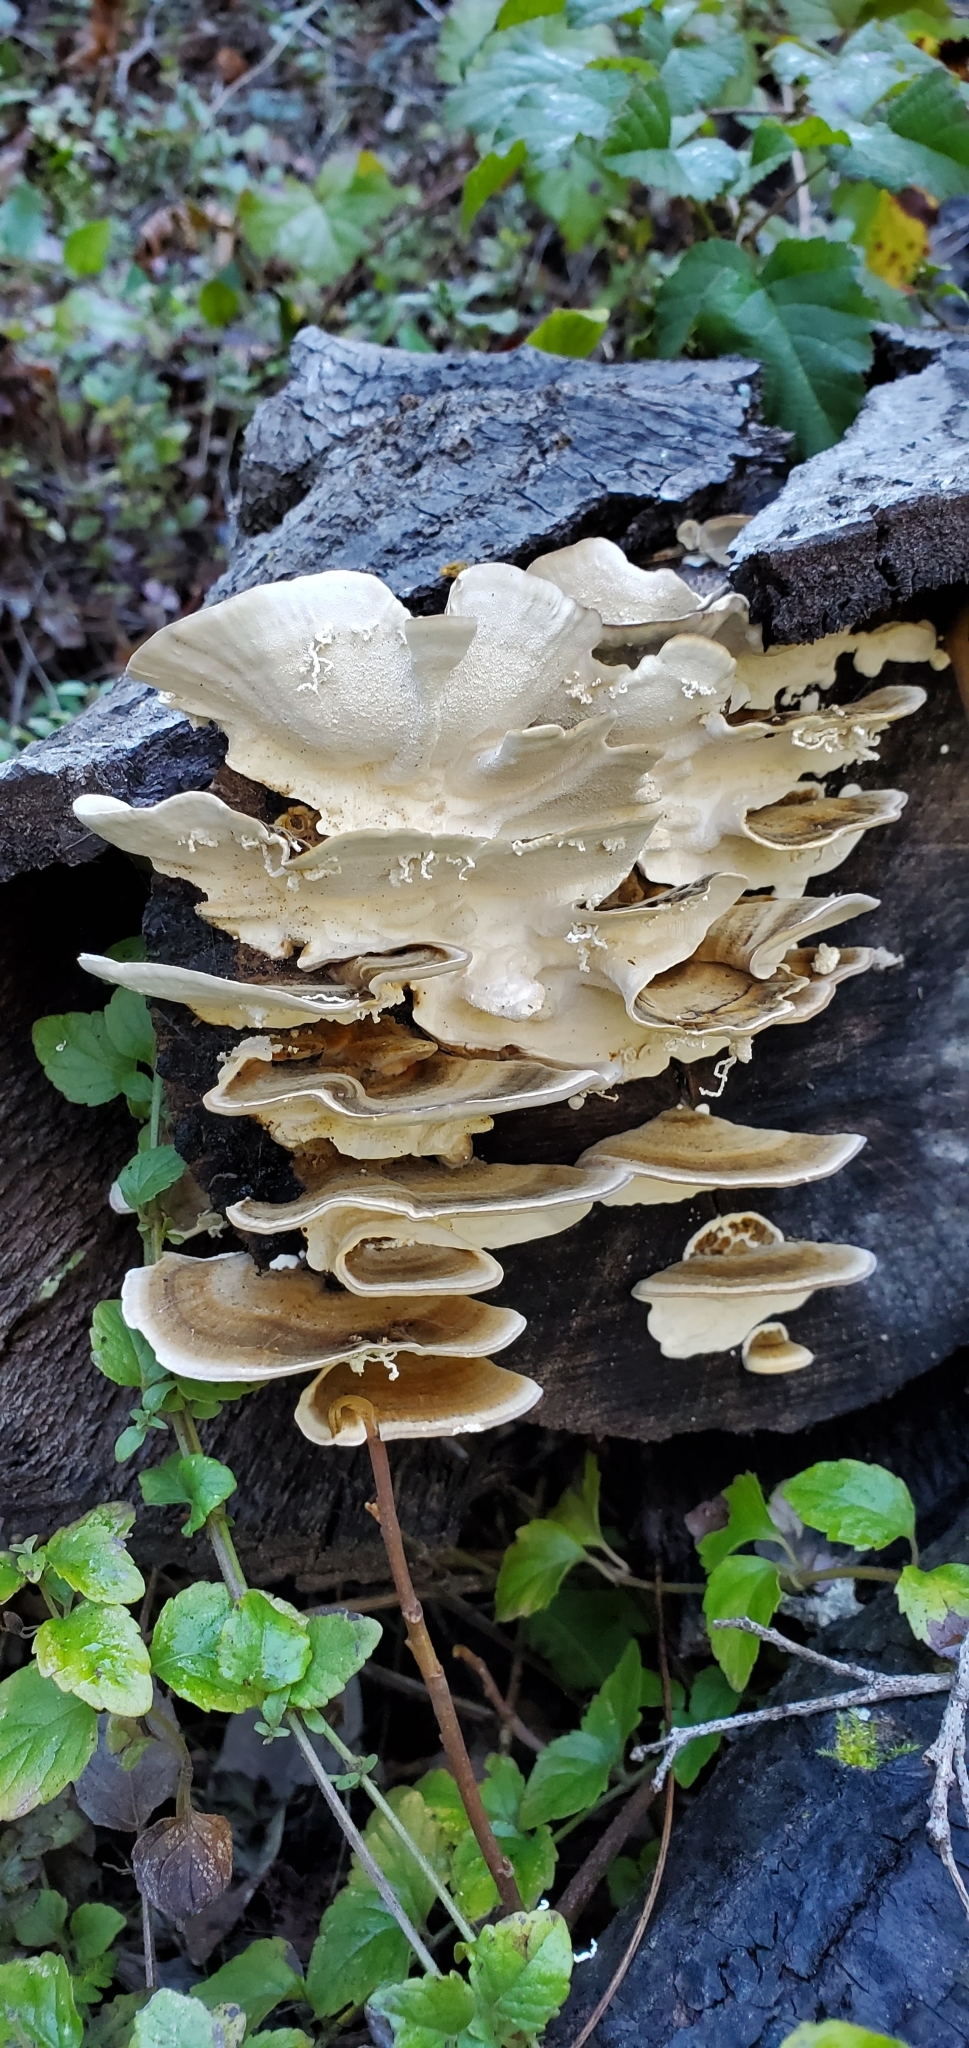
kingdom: Fungi
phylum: Basidiomycota
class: Agaricomycetes
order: Polyporales
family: Polyporaceae
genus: Trametes
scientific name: Trametes versicolor
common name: Turkeytail
